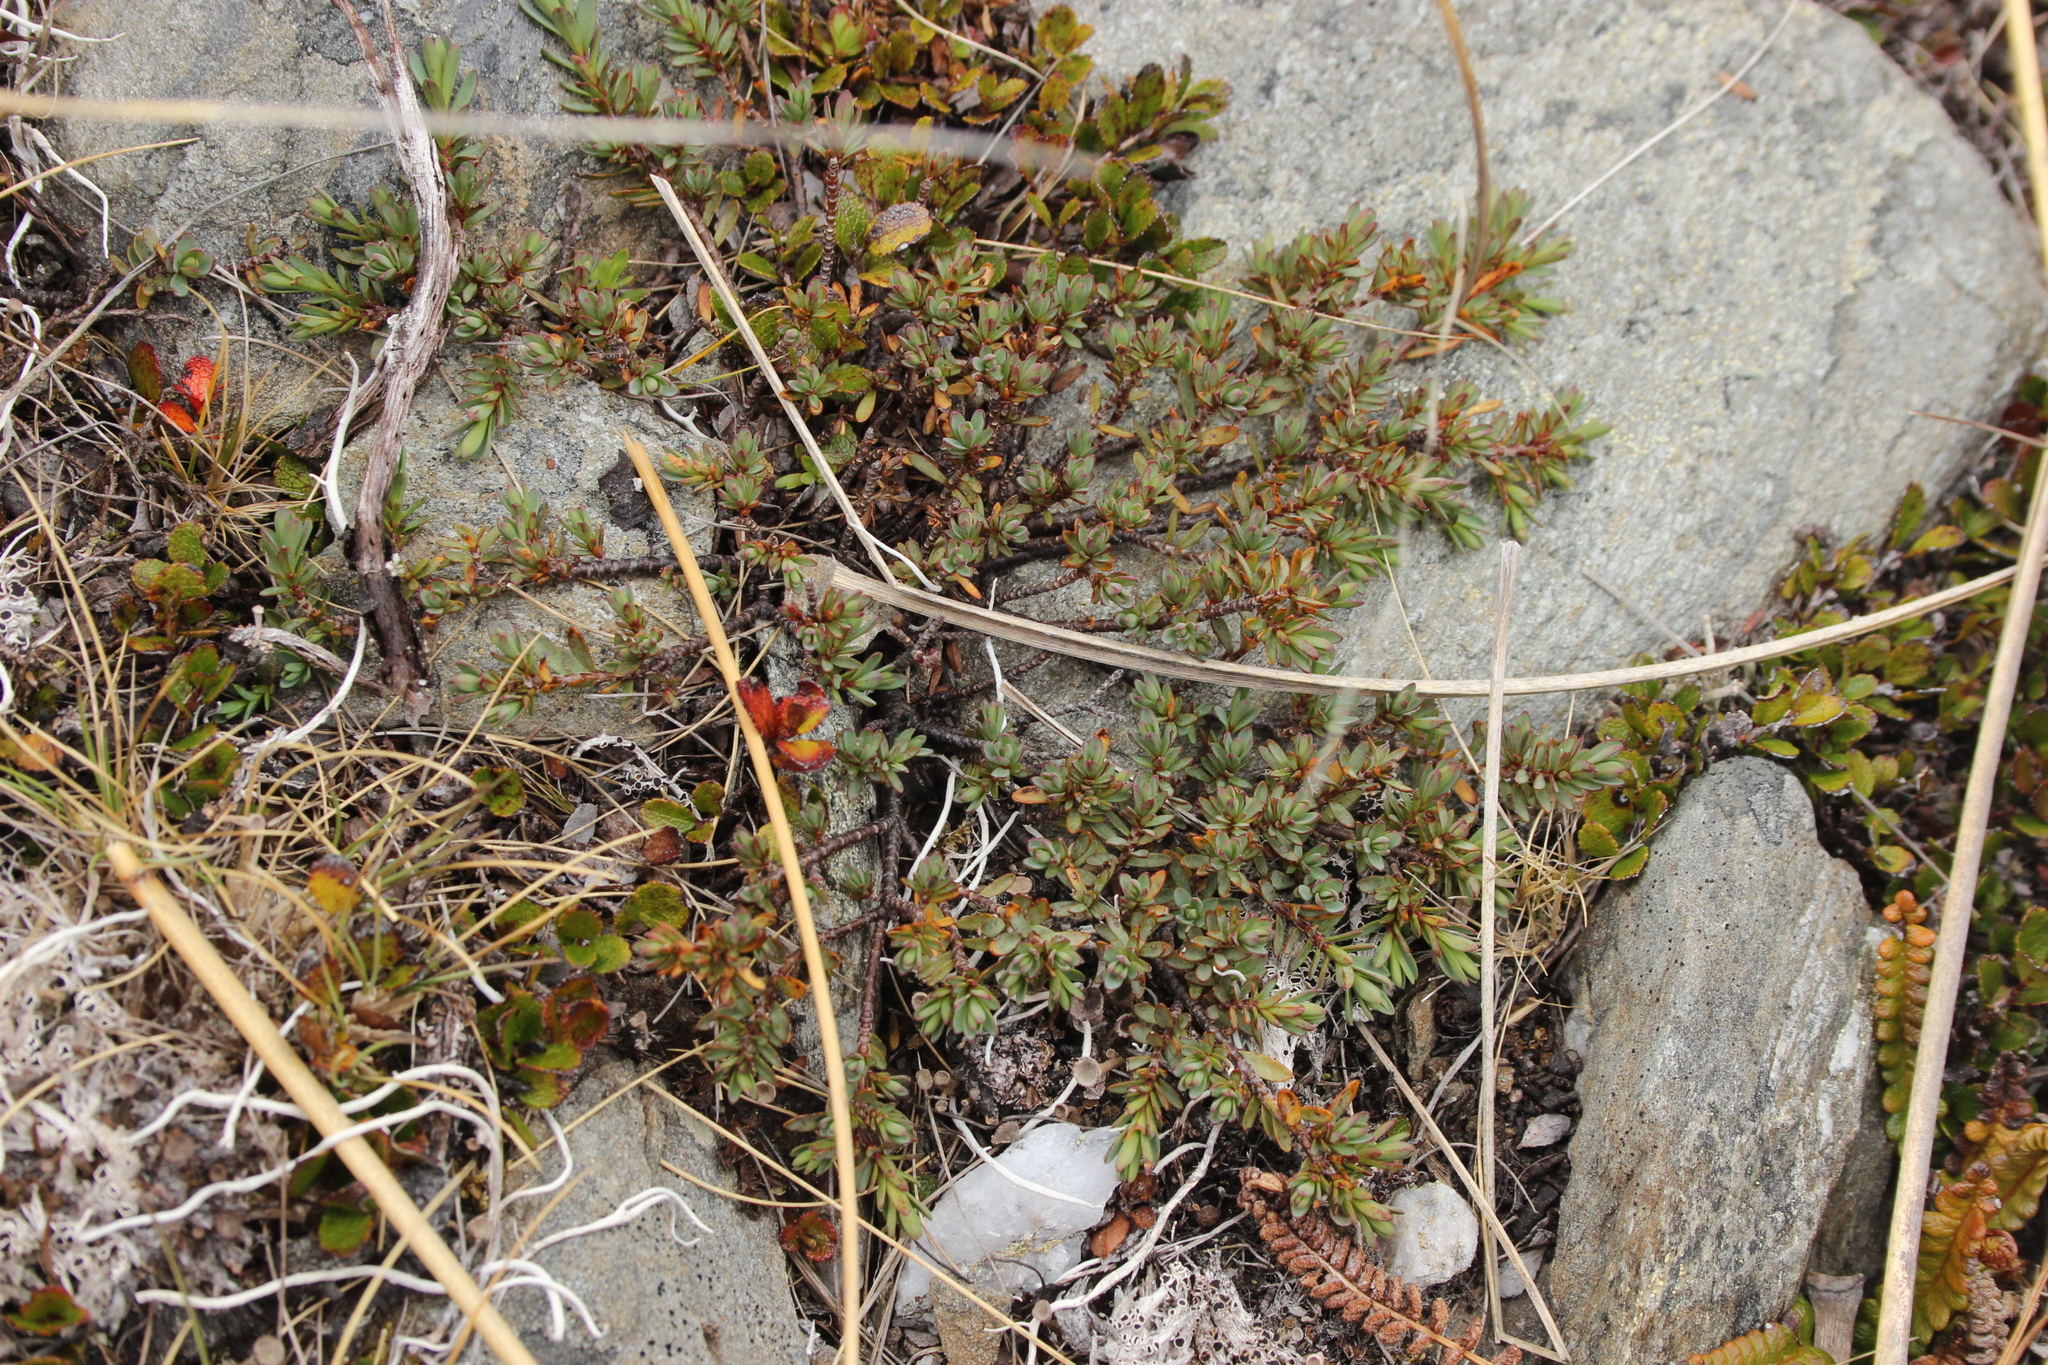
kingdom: Plantae
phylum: Tracheophyta
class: Magnoliopsida
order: Malvales
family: Thymelaeaceae
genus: Pimelea
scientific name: Pimelea notia
